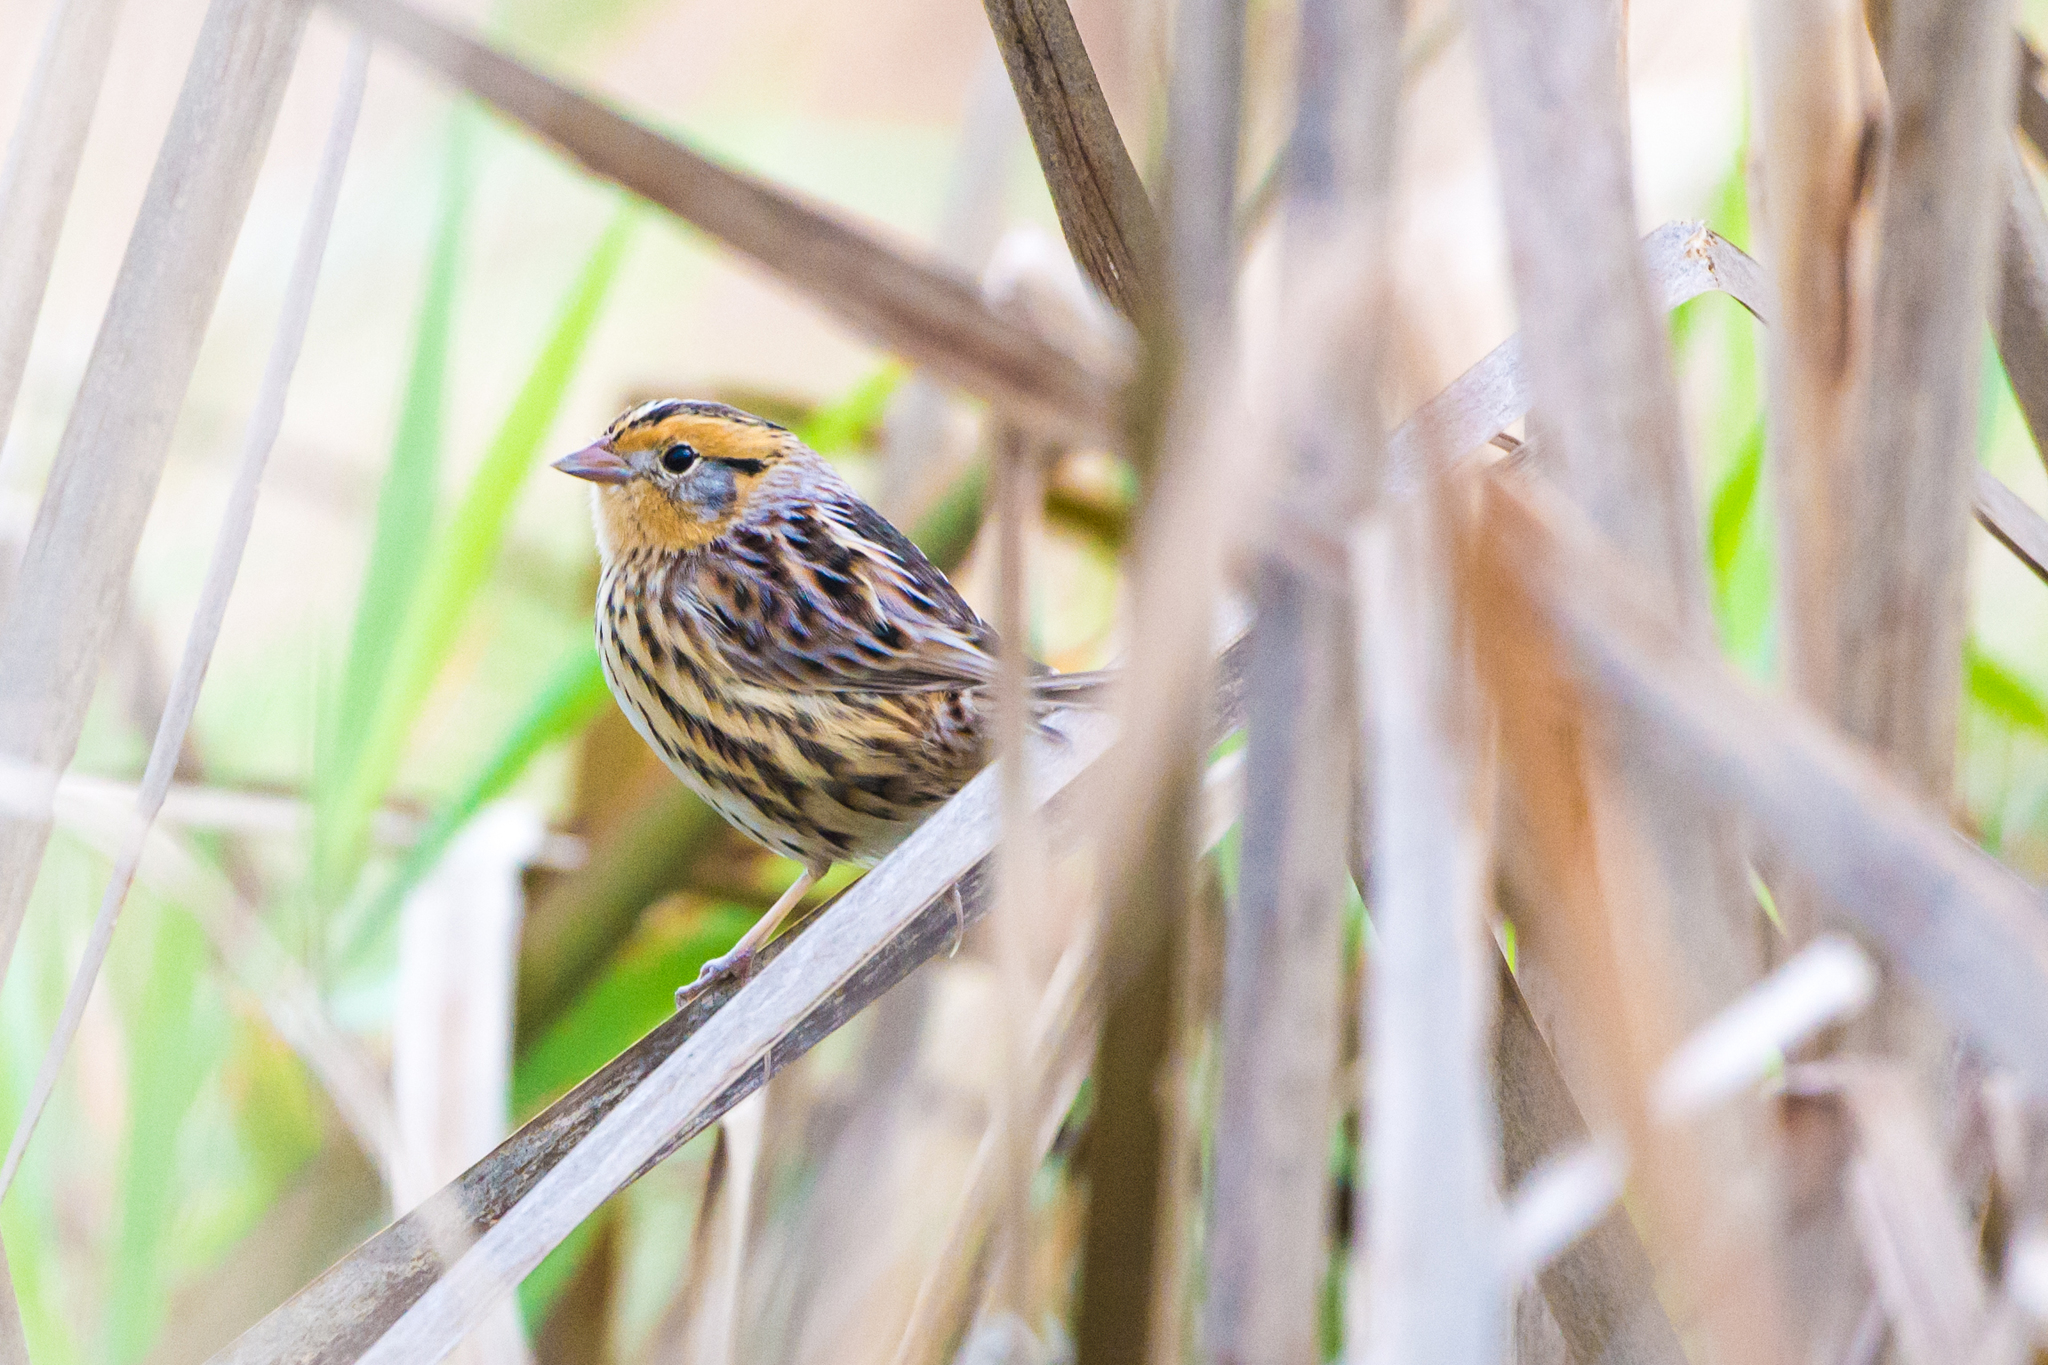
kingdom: Animalia
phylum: Chordata
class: Aves
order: Passeriformes
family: Passerellidae
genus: Ammospiza
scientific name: Ammospiza leconteii
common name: Le conte's sparrow
